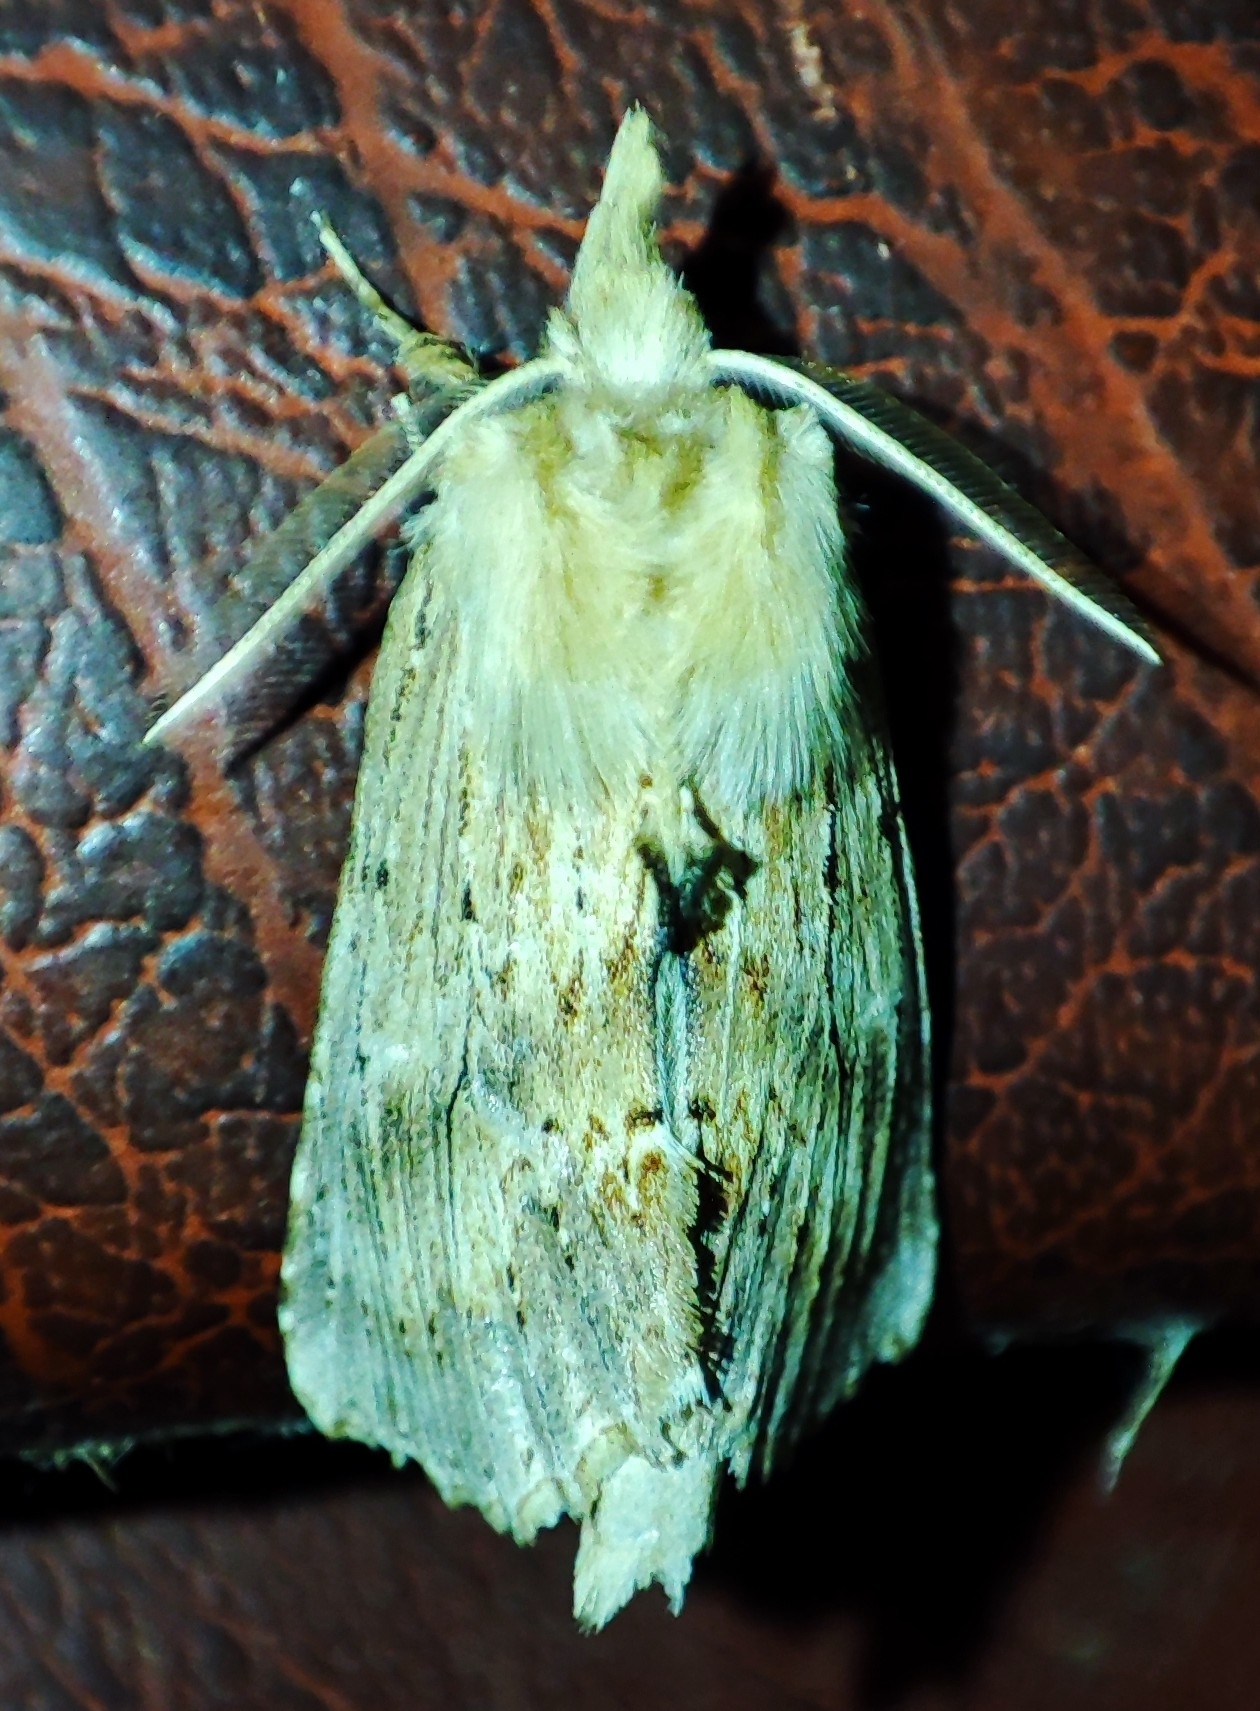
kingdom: Animalia
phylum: Arthropoda
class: Insecta
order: Lepidoptera
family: Notodontidae
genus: Pterostoma
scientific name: Pterostoma palpina
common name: Pale prominent
